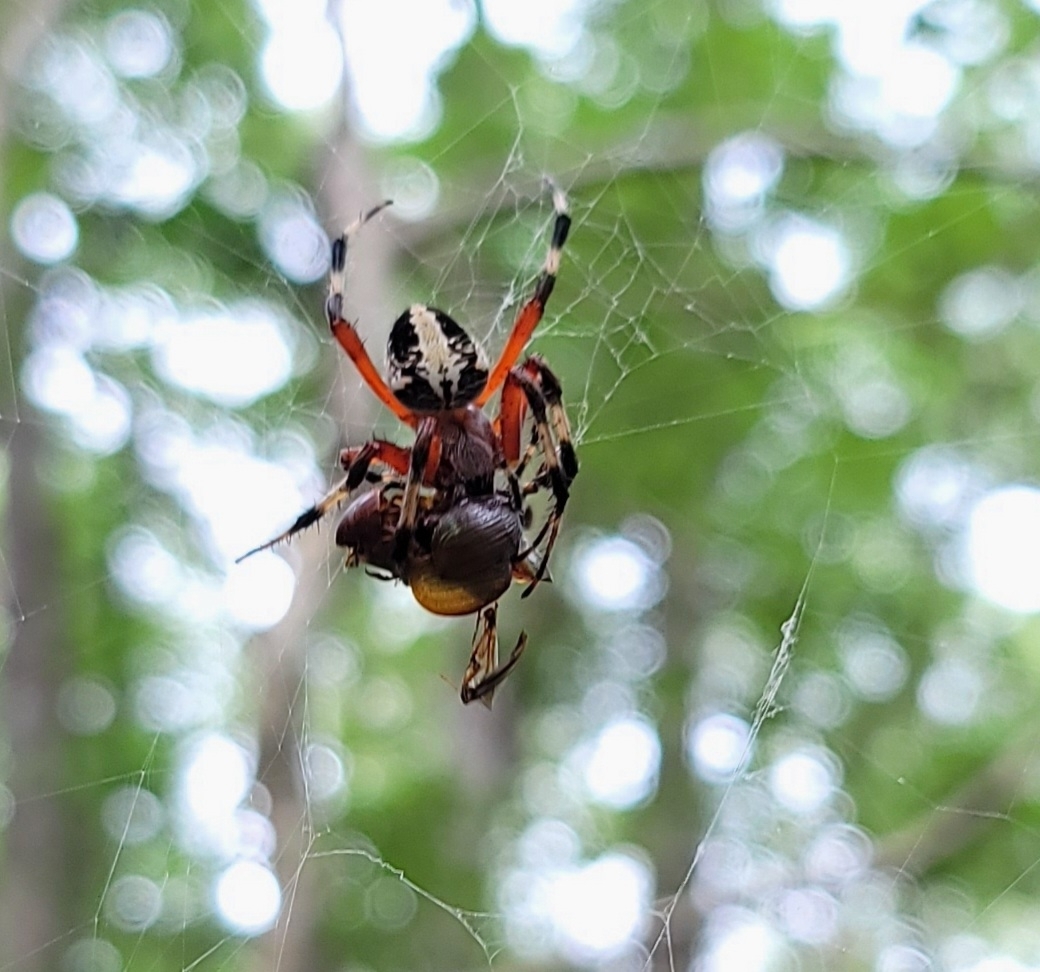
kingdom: Animalia
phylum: Arthropoda
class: Arachnida
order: Araneae
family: Araneidae
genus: Neoscona
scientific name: Neoscona domiciliorum
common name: Red-femured spotted orbweaver
